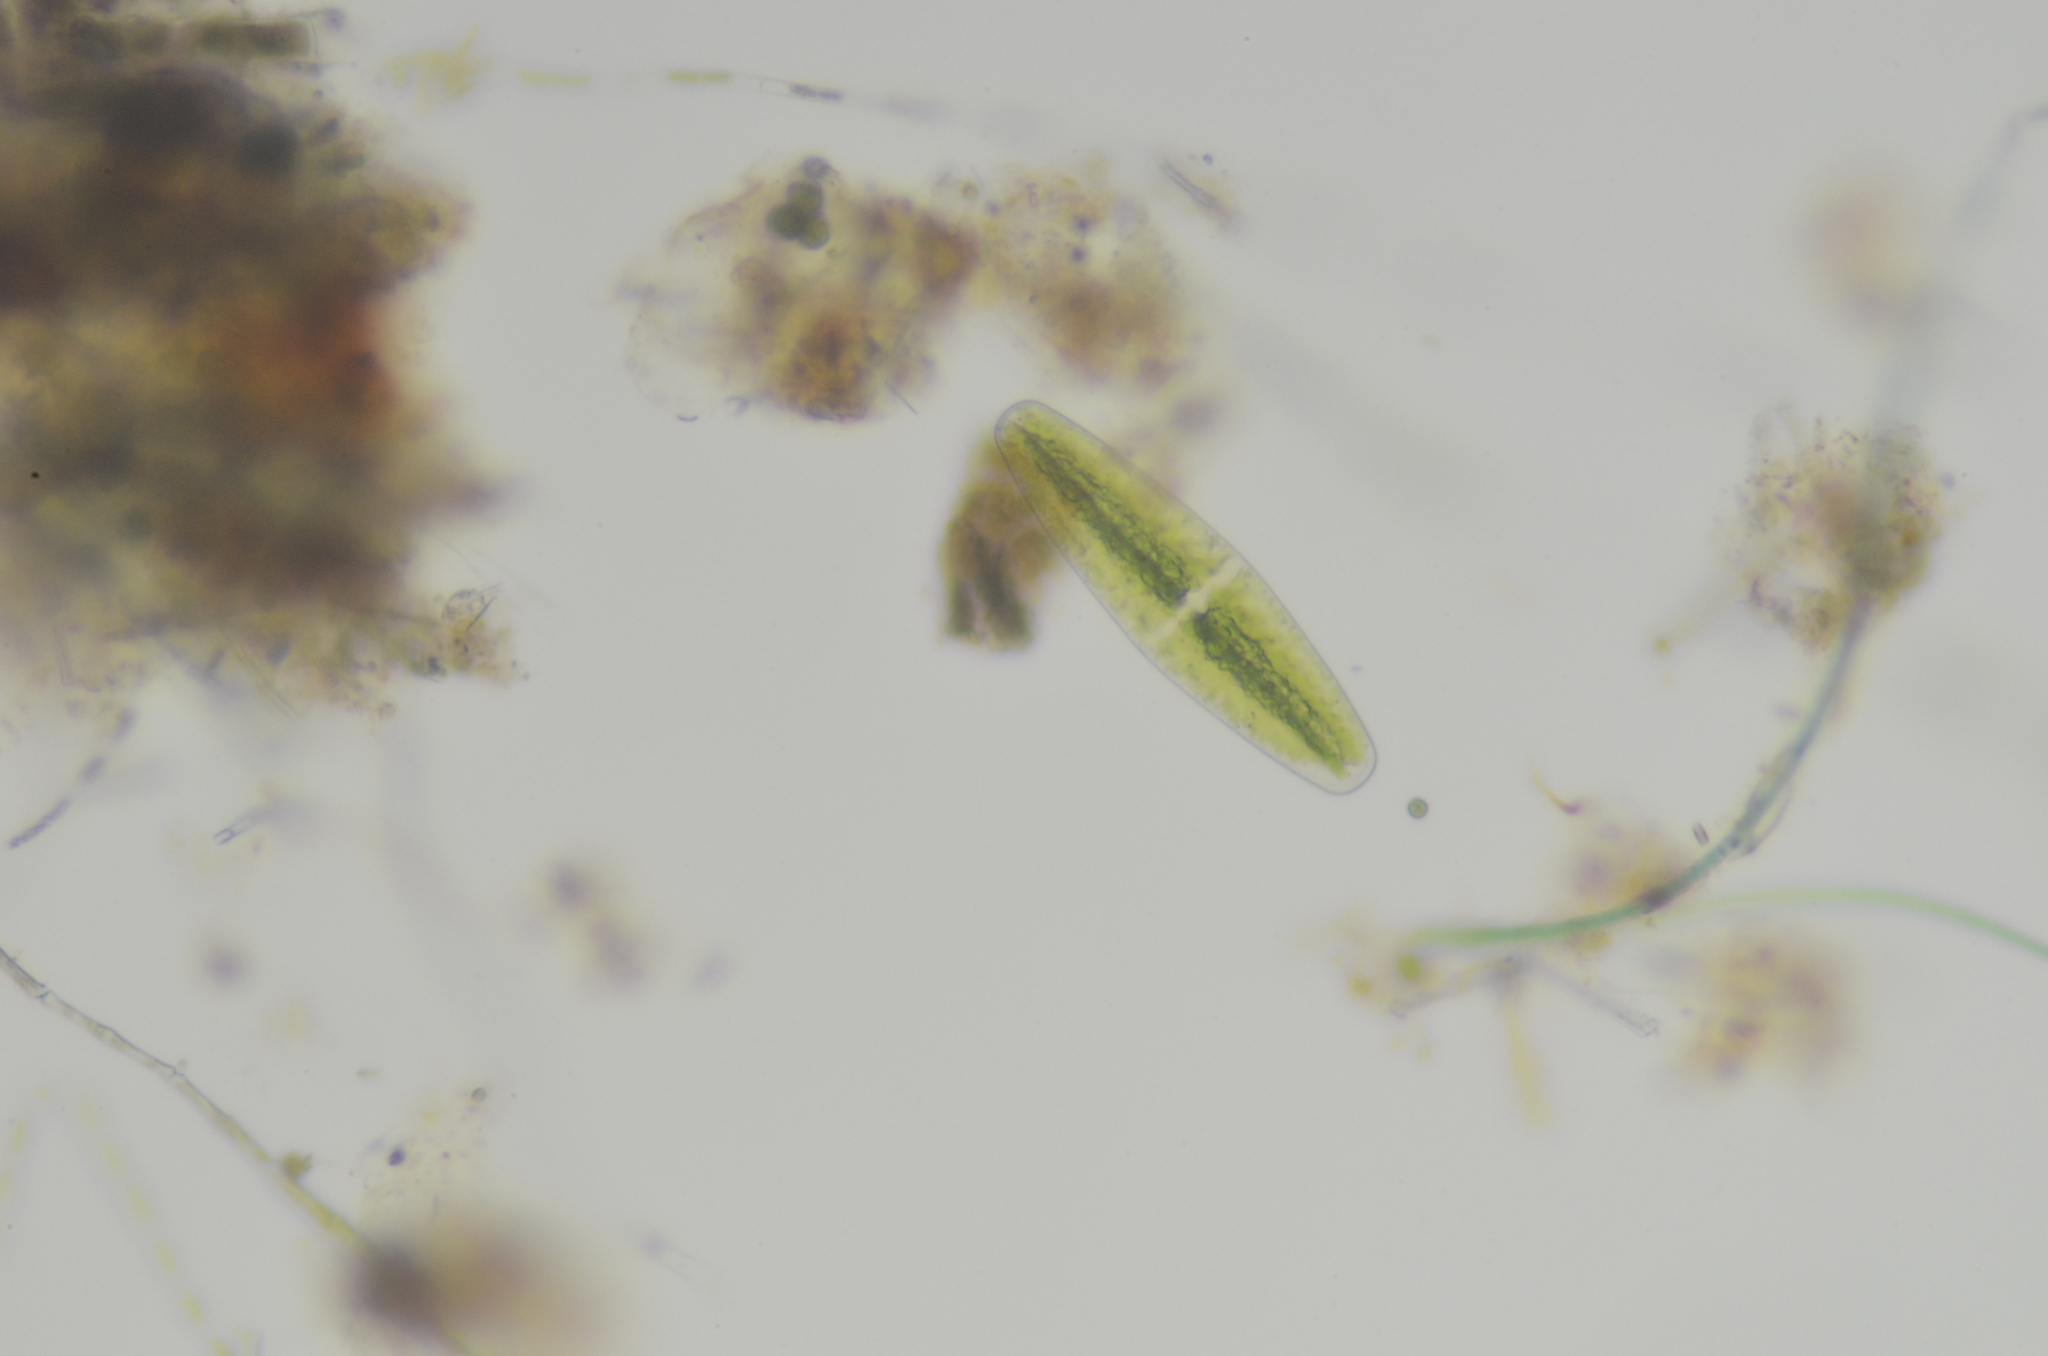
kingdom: Plantae
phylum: Charophyta
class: Zygnematophyceae
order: Zygnematales
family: Mesotaeniaceae
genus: Netrium
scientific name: Netrium digitus
